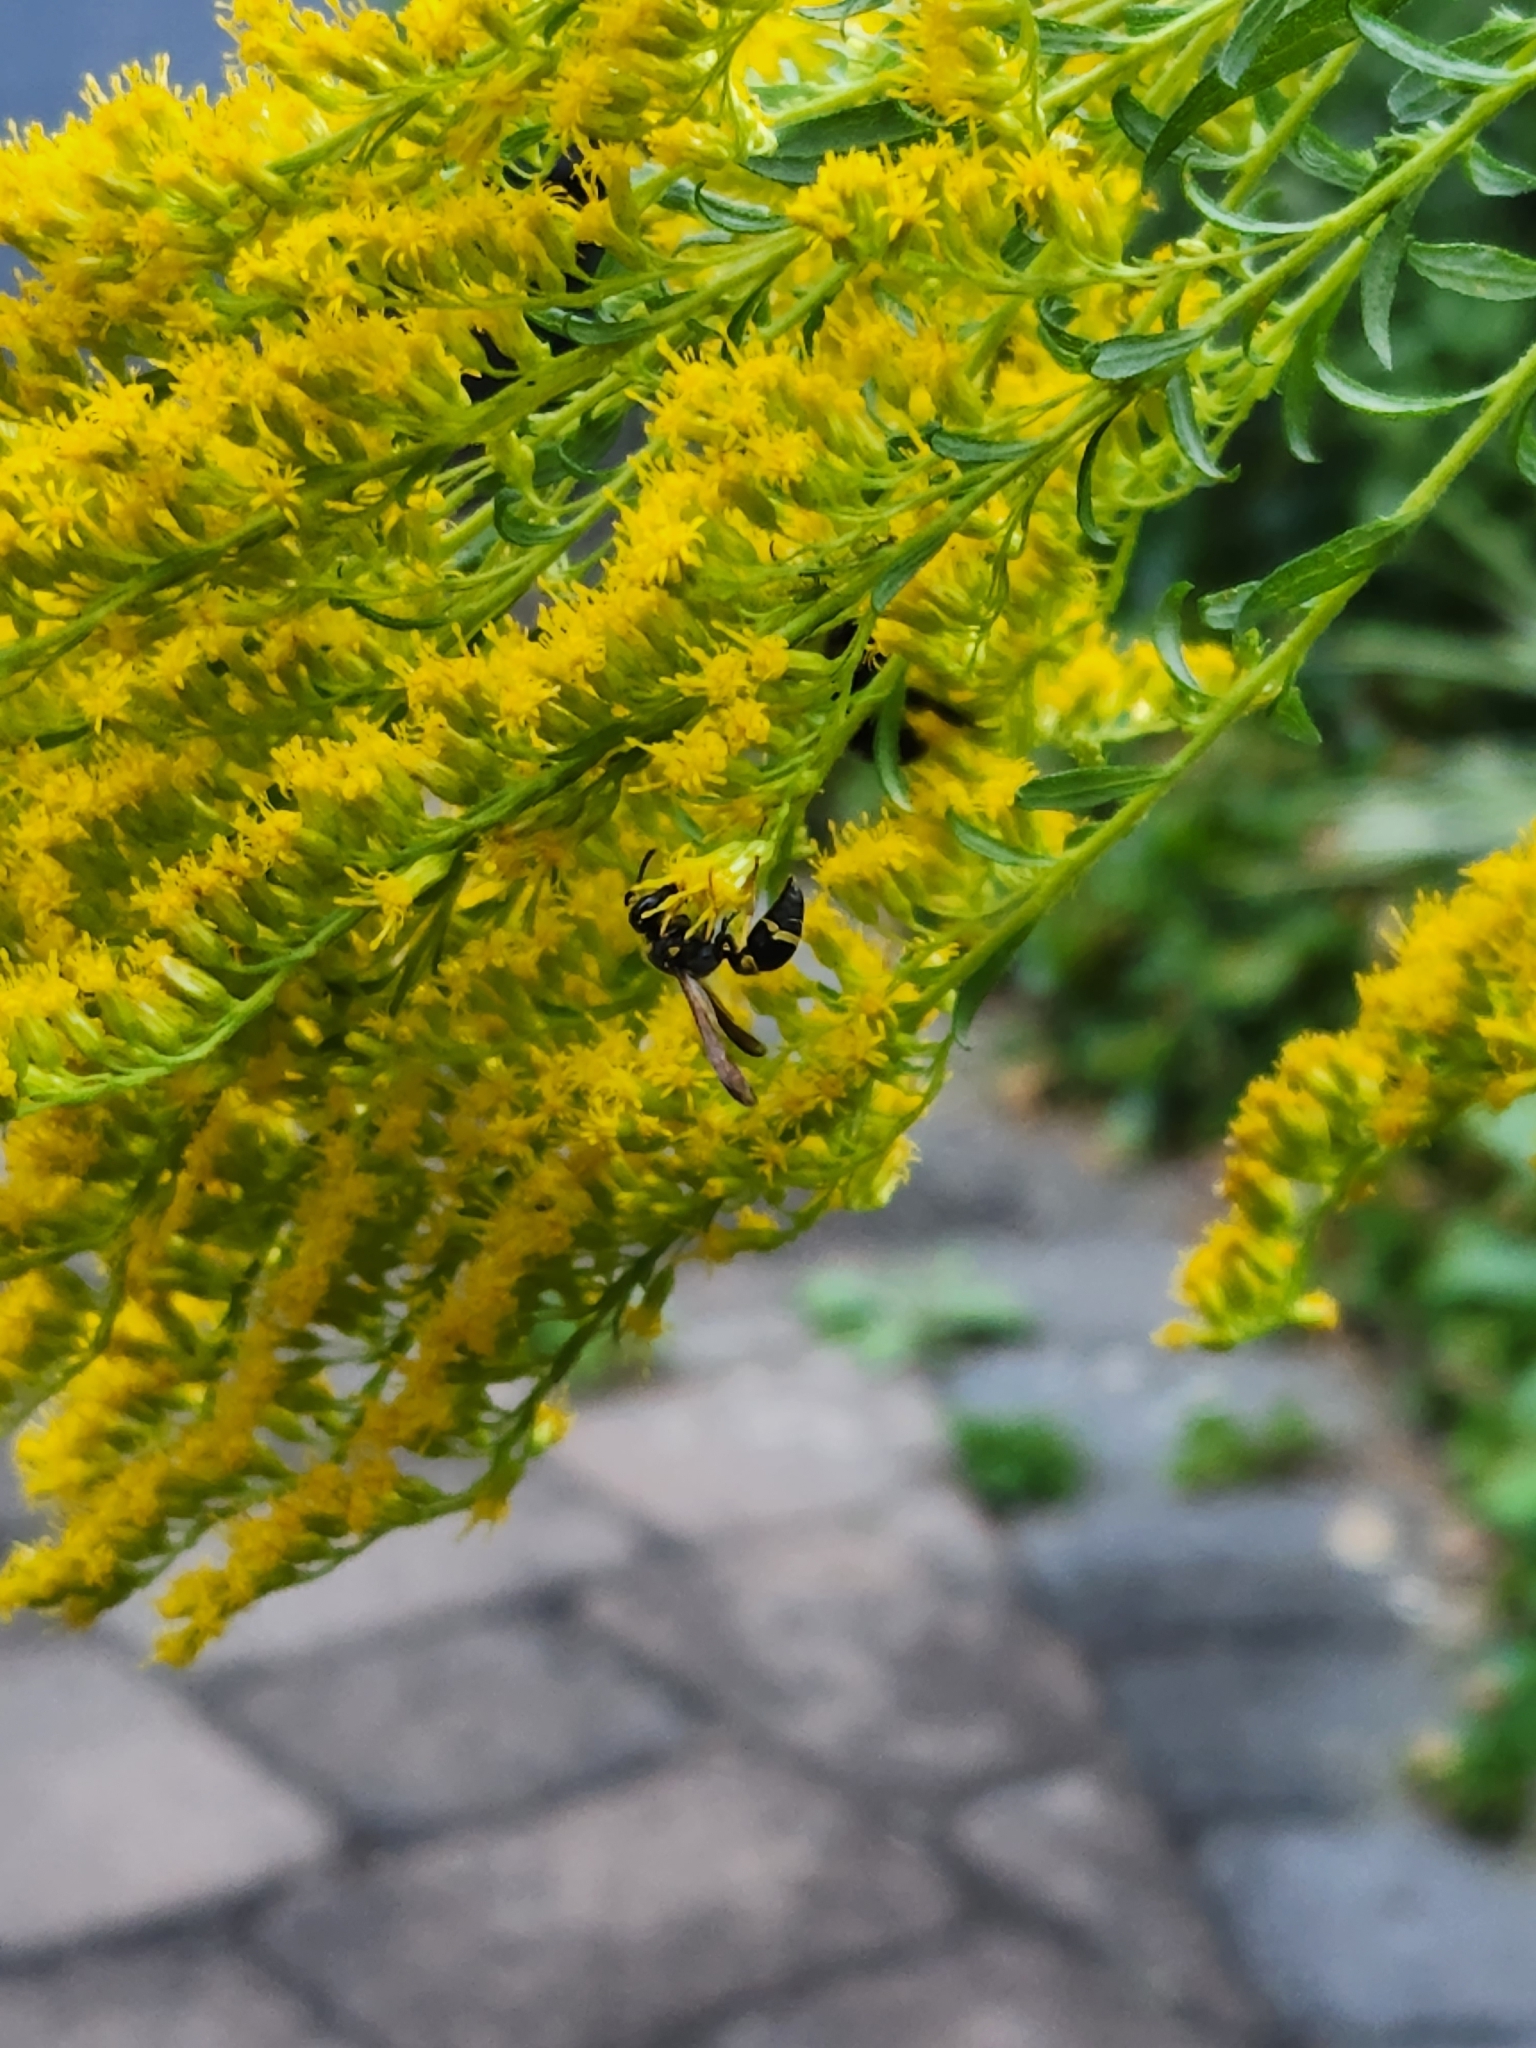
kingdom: Animalia
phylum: Arthropoda
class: Insecta
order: Hymenoptera
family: Vespidae
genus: Ancistrocerus
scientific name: Ancistrocerus campestris
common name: Smiling mason wasp
